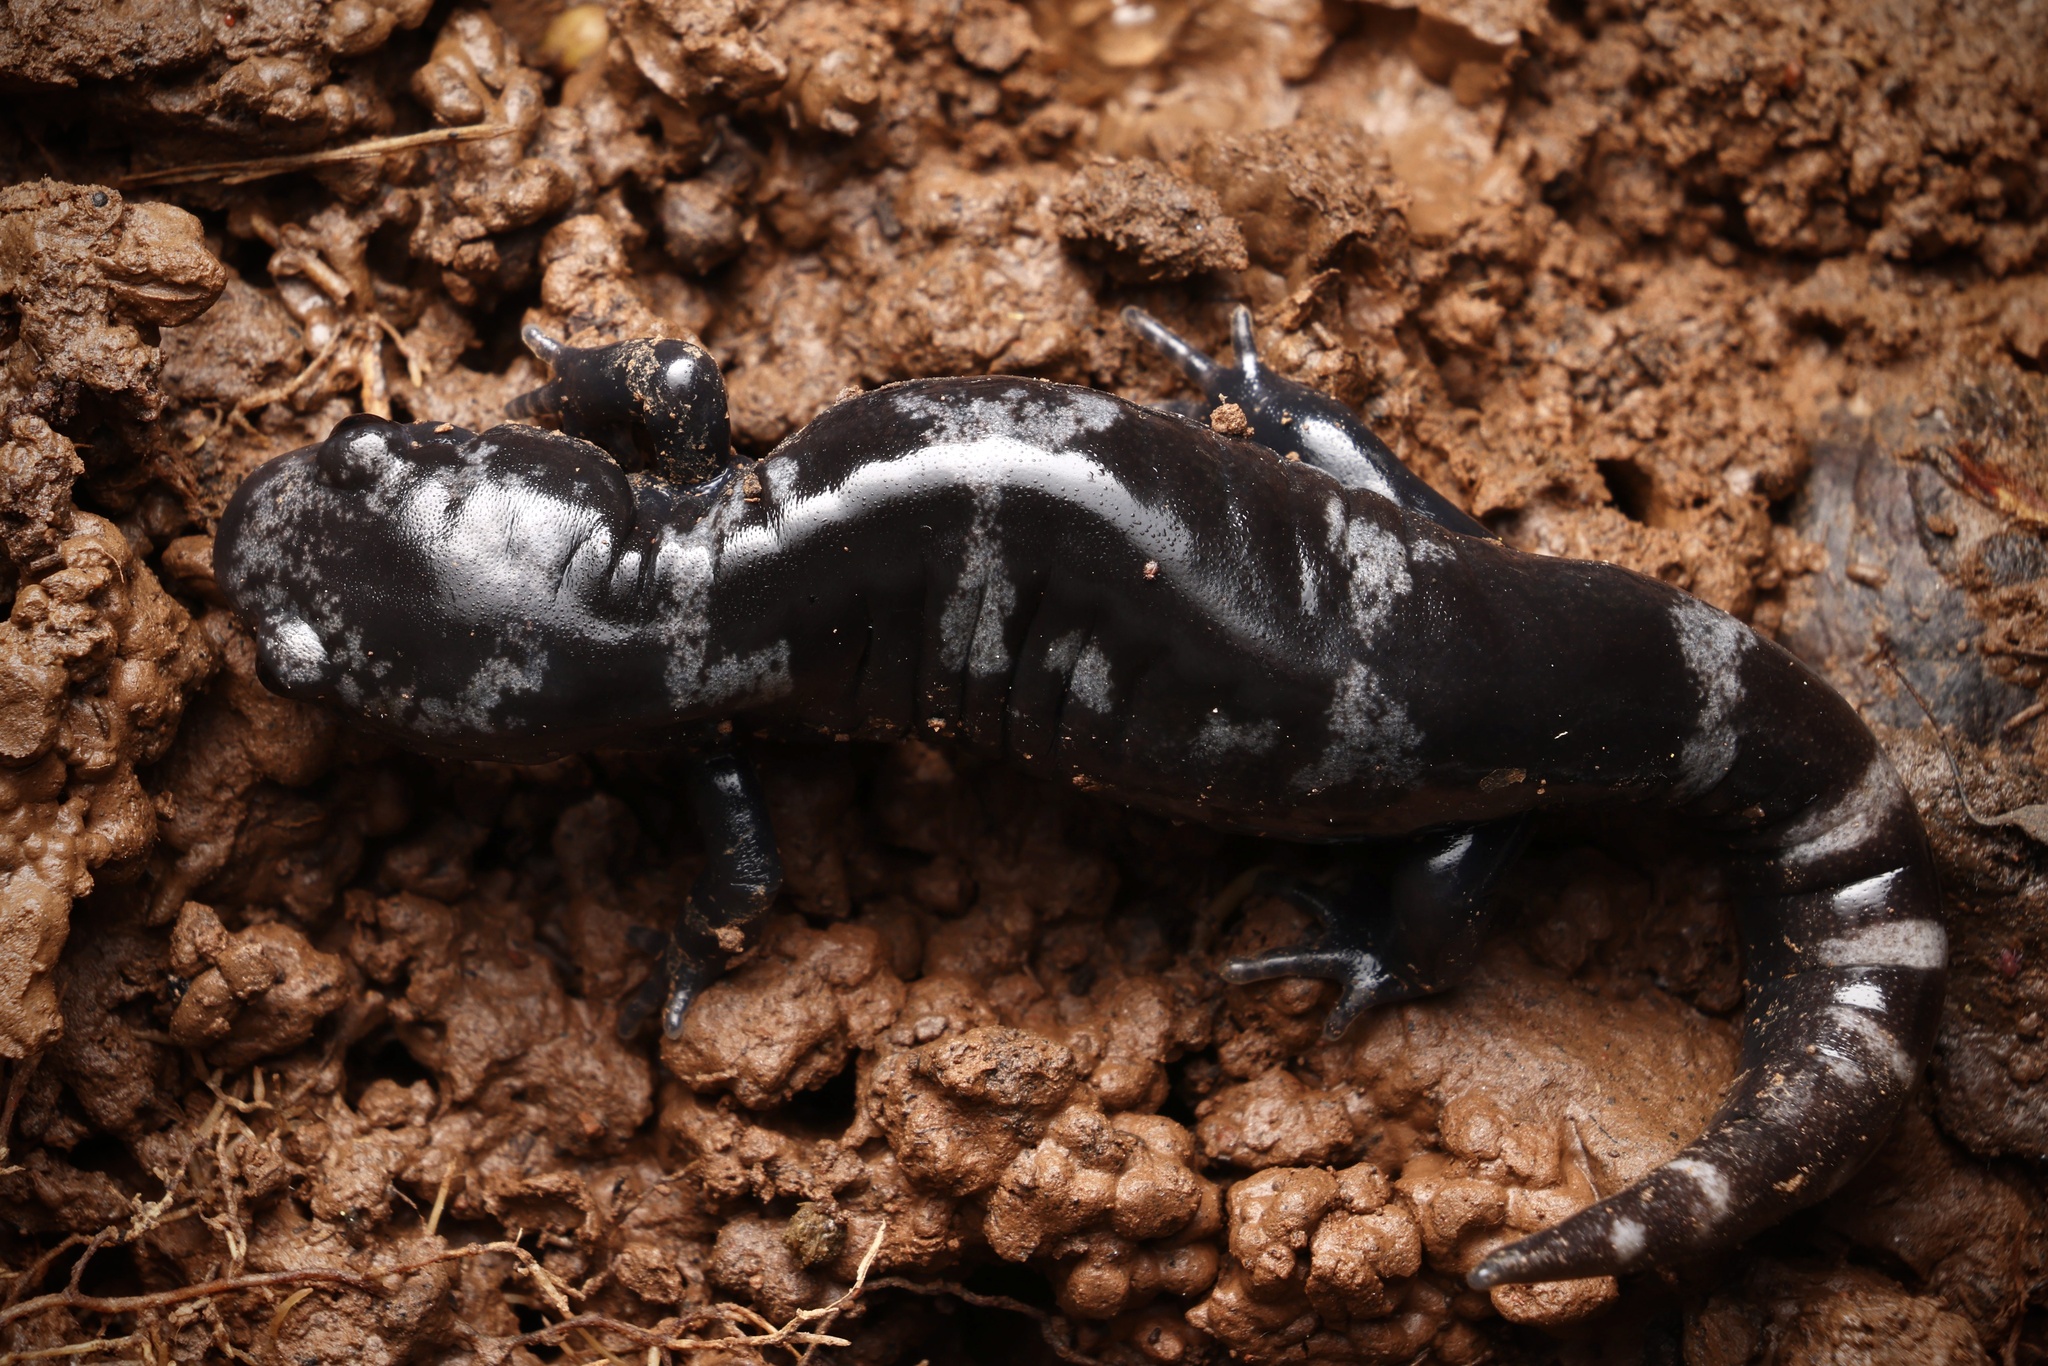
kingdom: Animalia
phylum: Chordata
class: Amphibia
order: Caudata
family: Ambystomatidae
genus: Ambystoma
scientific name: Ambystoma opacum
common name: Marbled salamander
